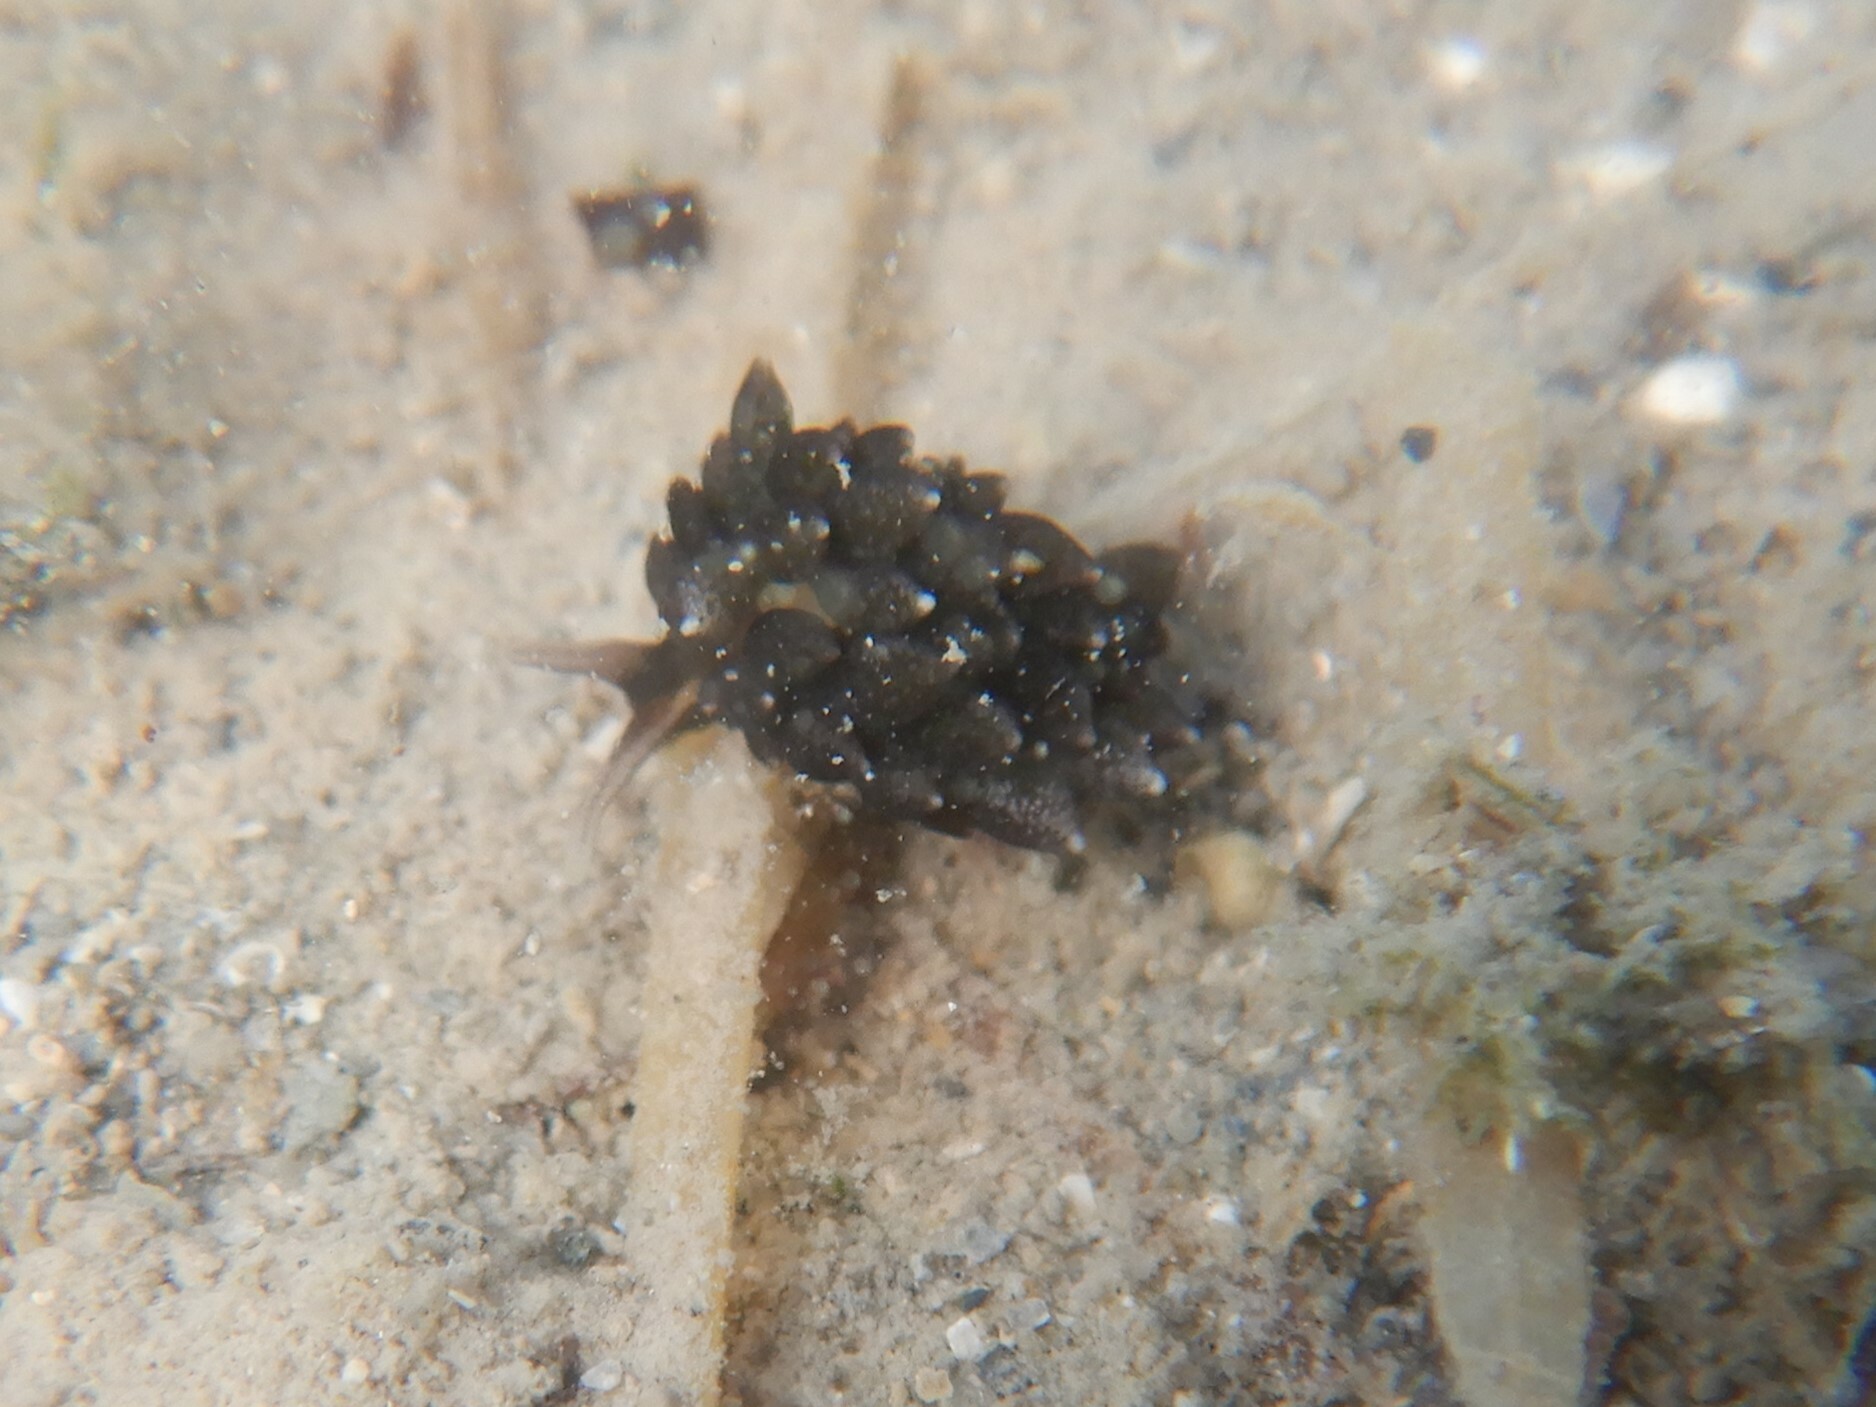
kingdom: Animalia
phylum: Mollusca
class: Gastropoda
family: Limapontiidae
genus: Ercolania
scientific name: Ercolania viridis
